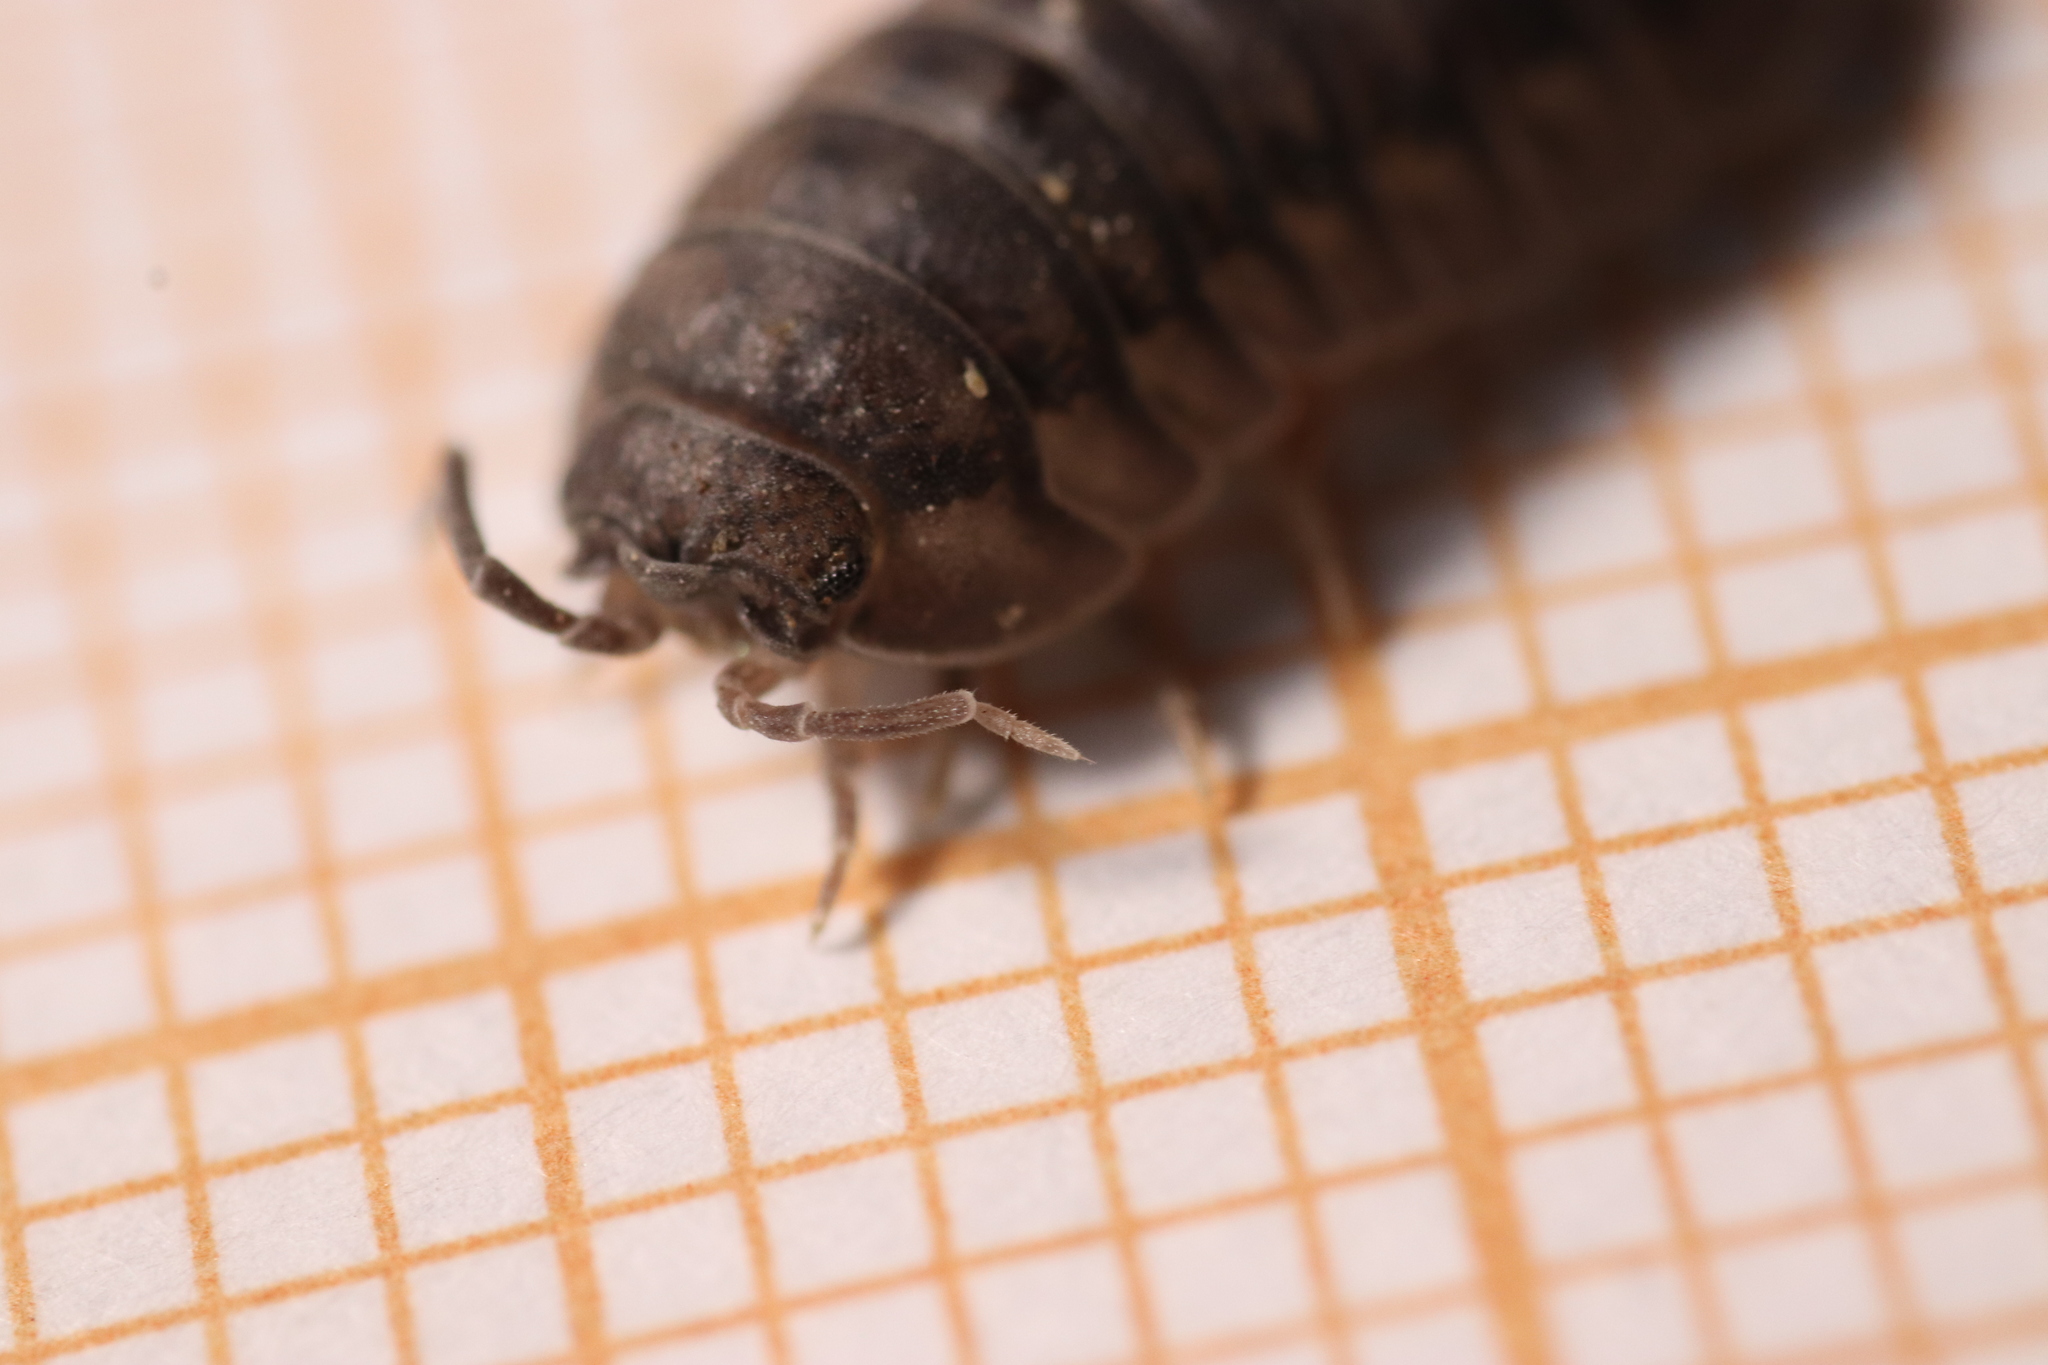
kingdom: Animalia
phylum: Arthropoda
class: Malacostraca
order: Isopoda
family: Armadillidiidae
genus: Armadillidium
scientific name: Armadillidium nasatum
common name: Isopod
